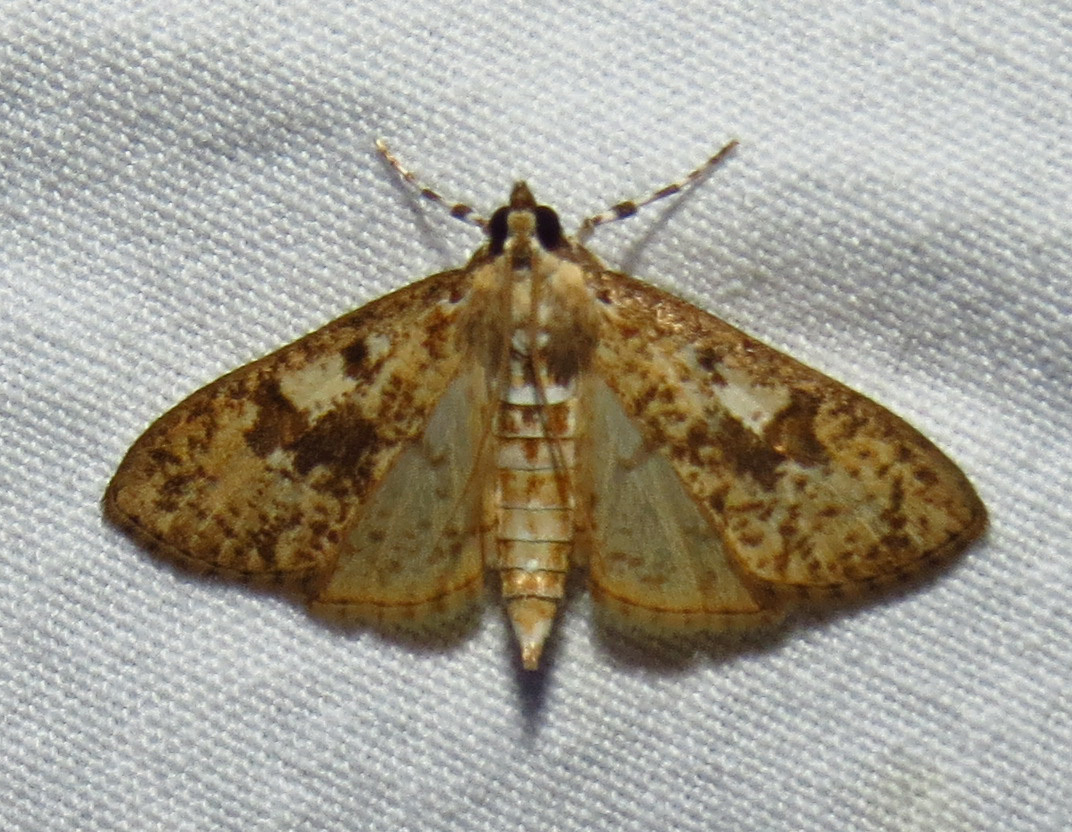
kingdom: Animalia
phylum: Arthropoda
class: Insecta
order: Lepidoptera
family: Crambidae
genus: Palpita
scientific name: Palpita magniferalis
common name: Splendid palpita moth
